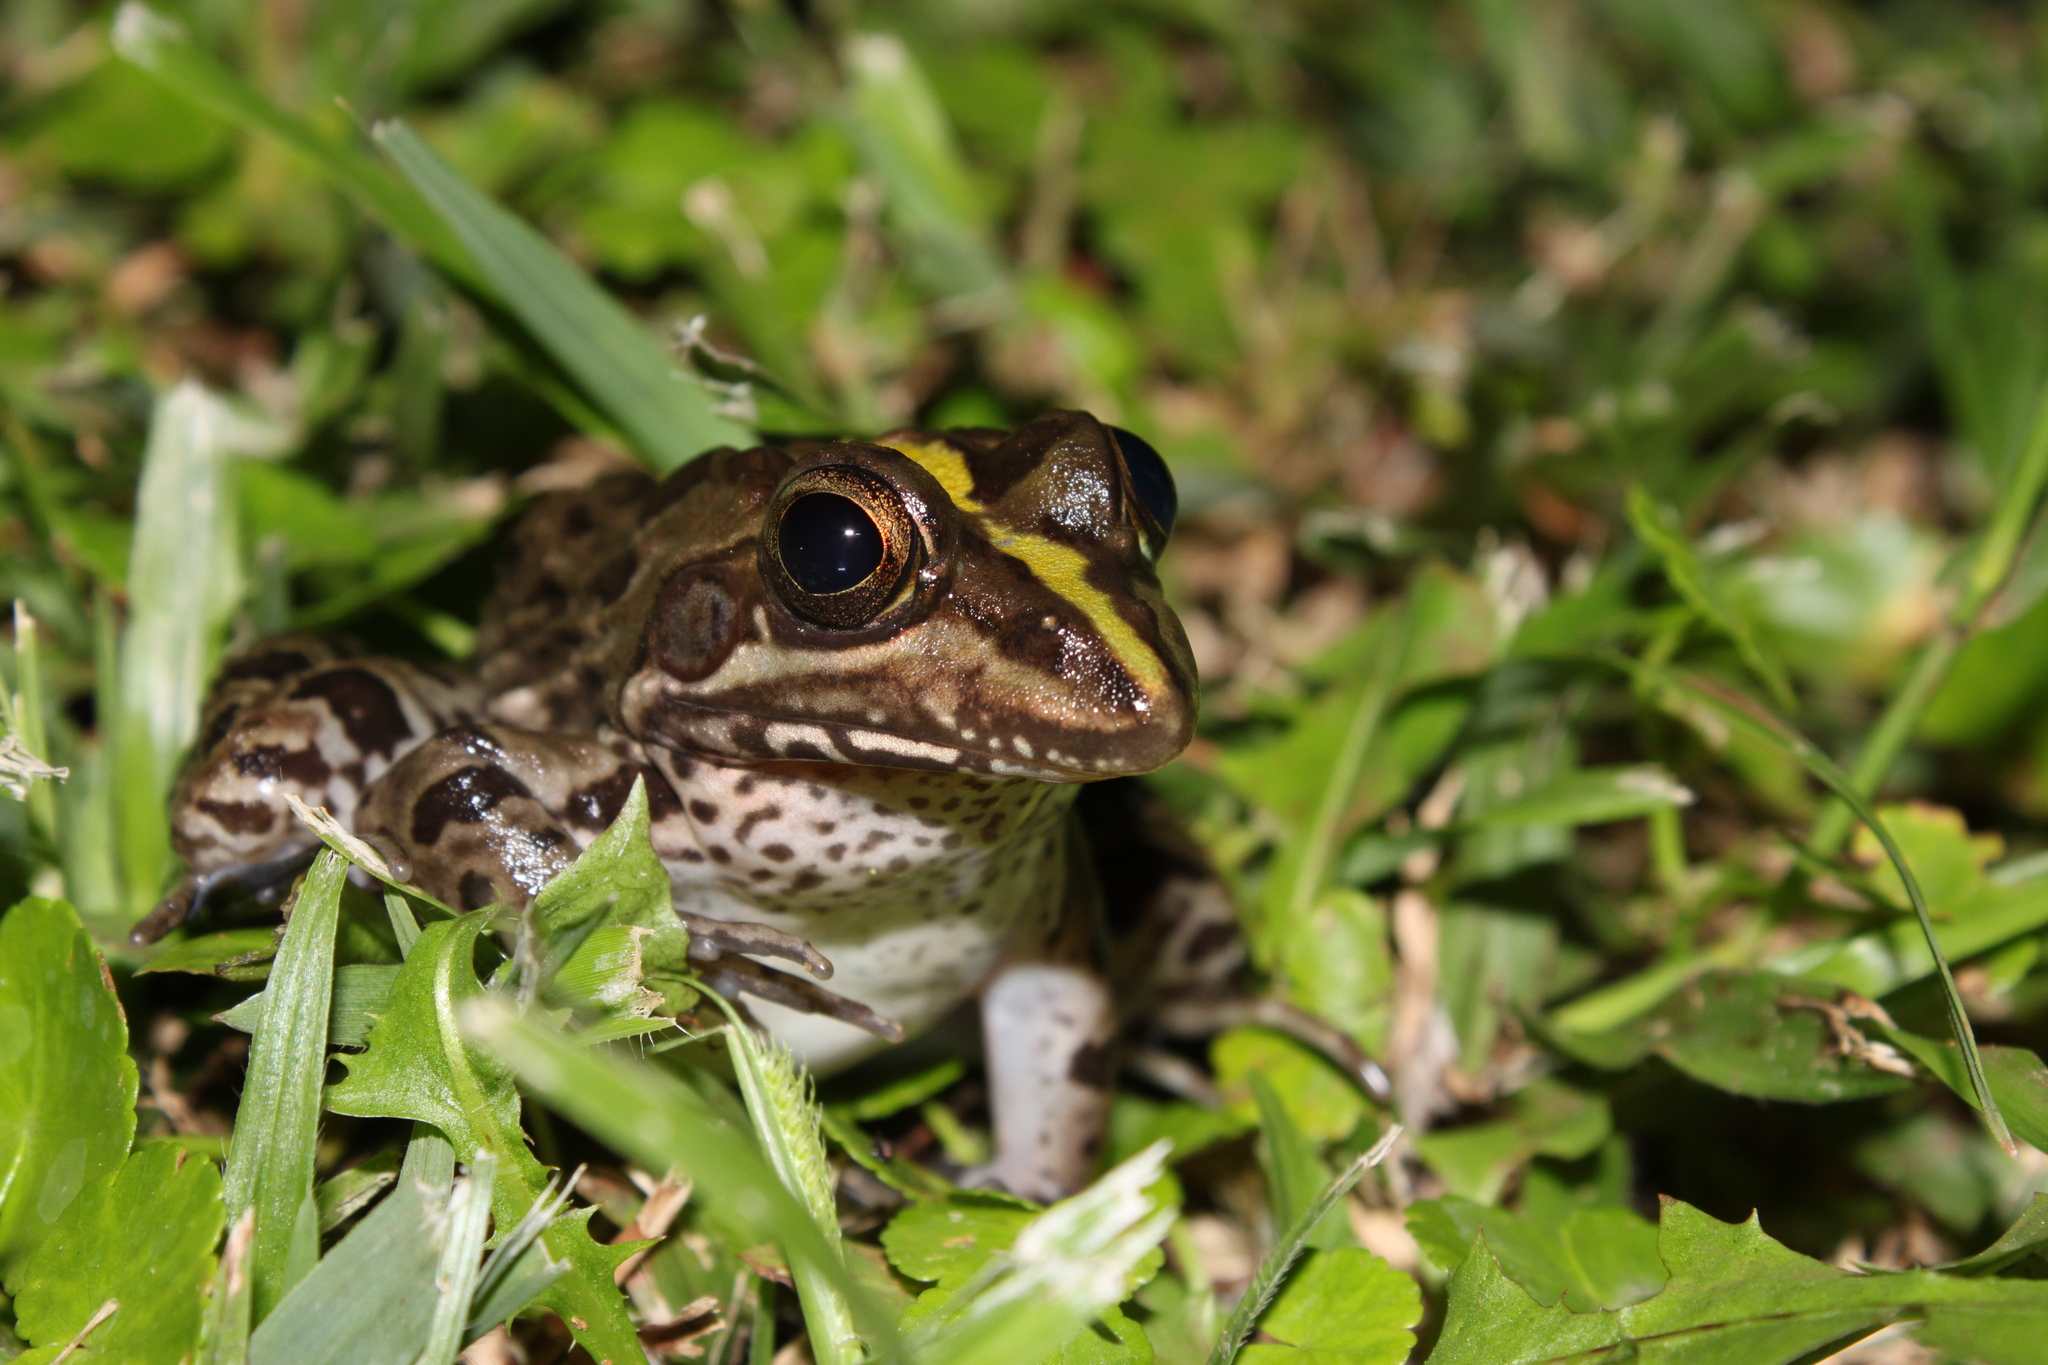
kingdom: Animalia
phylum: Chordata
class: Amphibia
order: Anura
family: Pyxicephalidae
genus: Amietia
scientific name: Amietia delalandii
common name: Delalande's river frog
